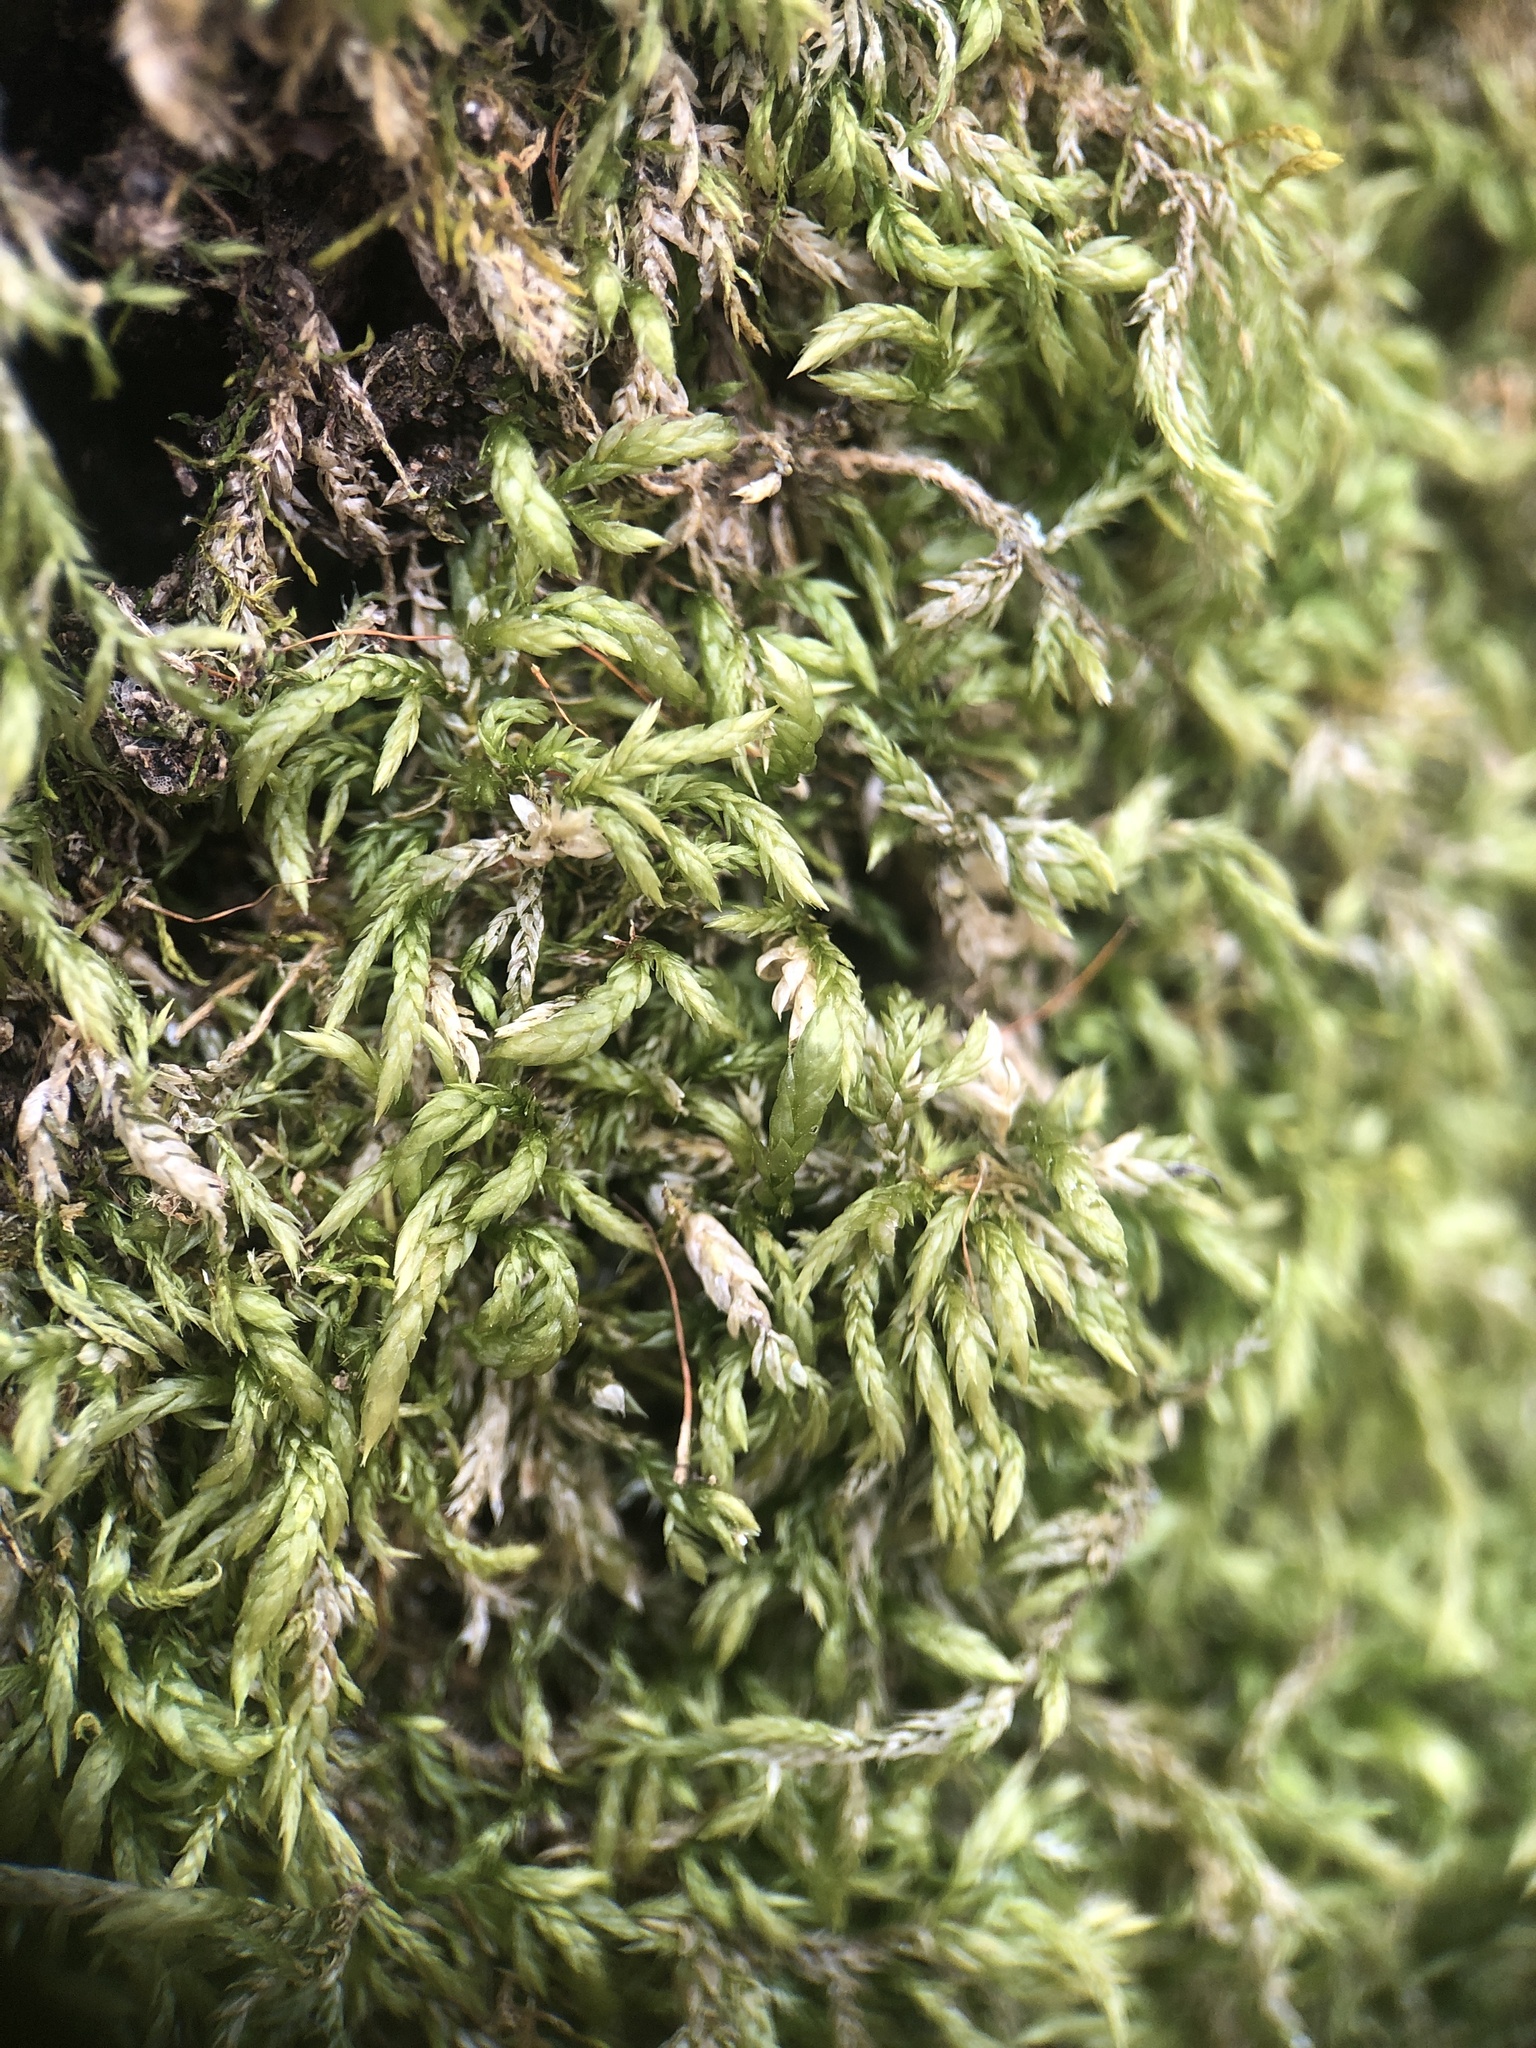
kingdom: Plantae
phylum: Bryophyta
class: Bryopsida
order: Hypnales
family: Lembophyllaceae
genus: Isothecium
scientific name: Isothecium alopecuroides
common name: Larger mouse-tail moss
